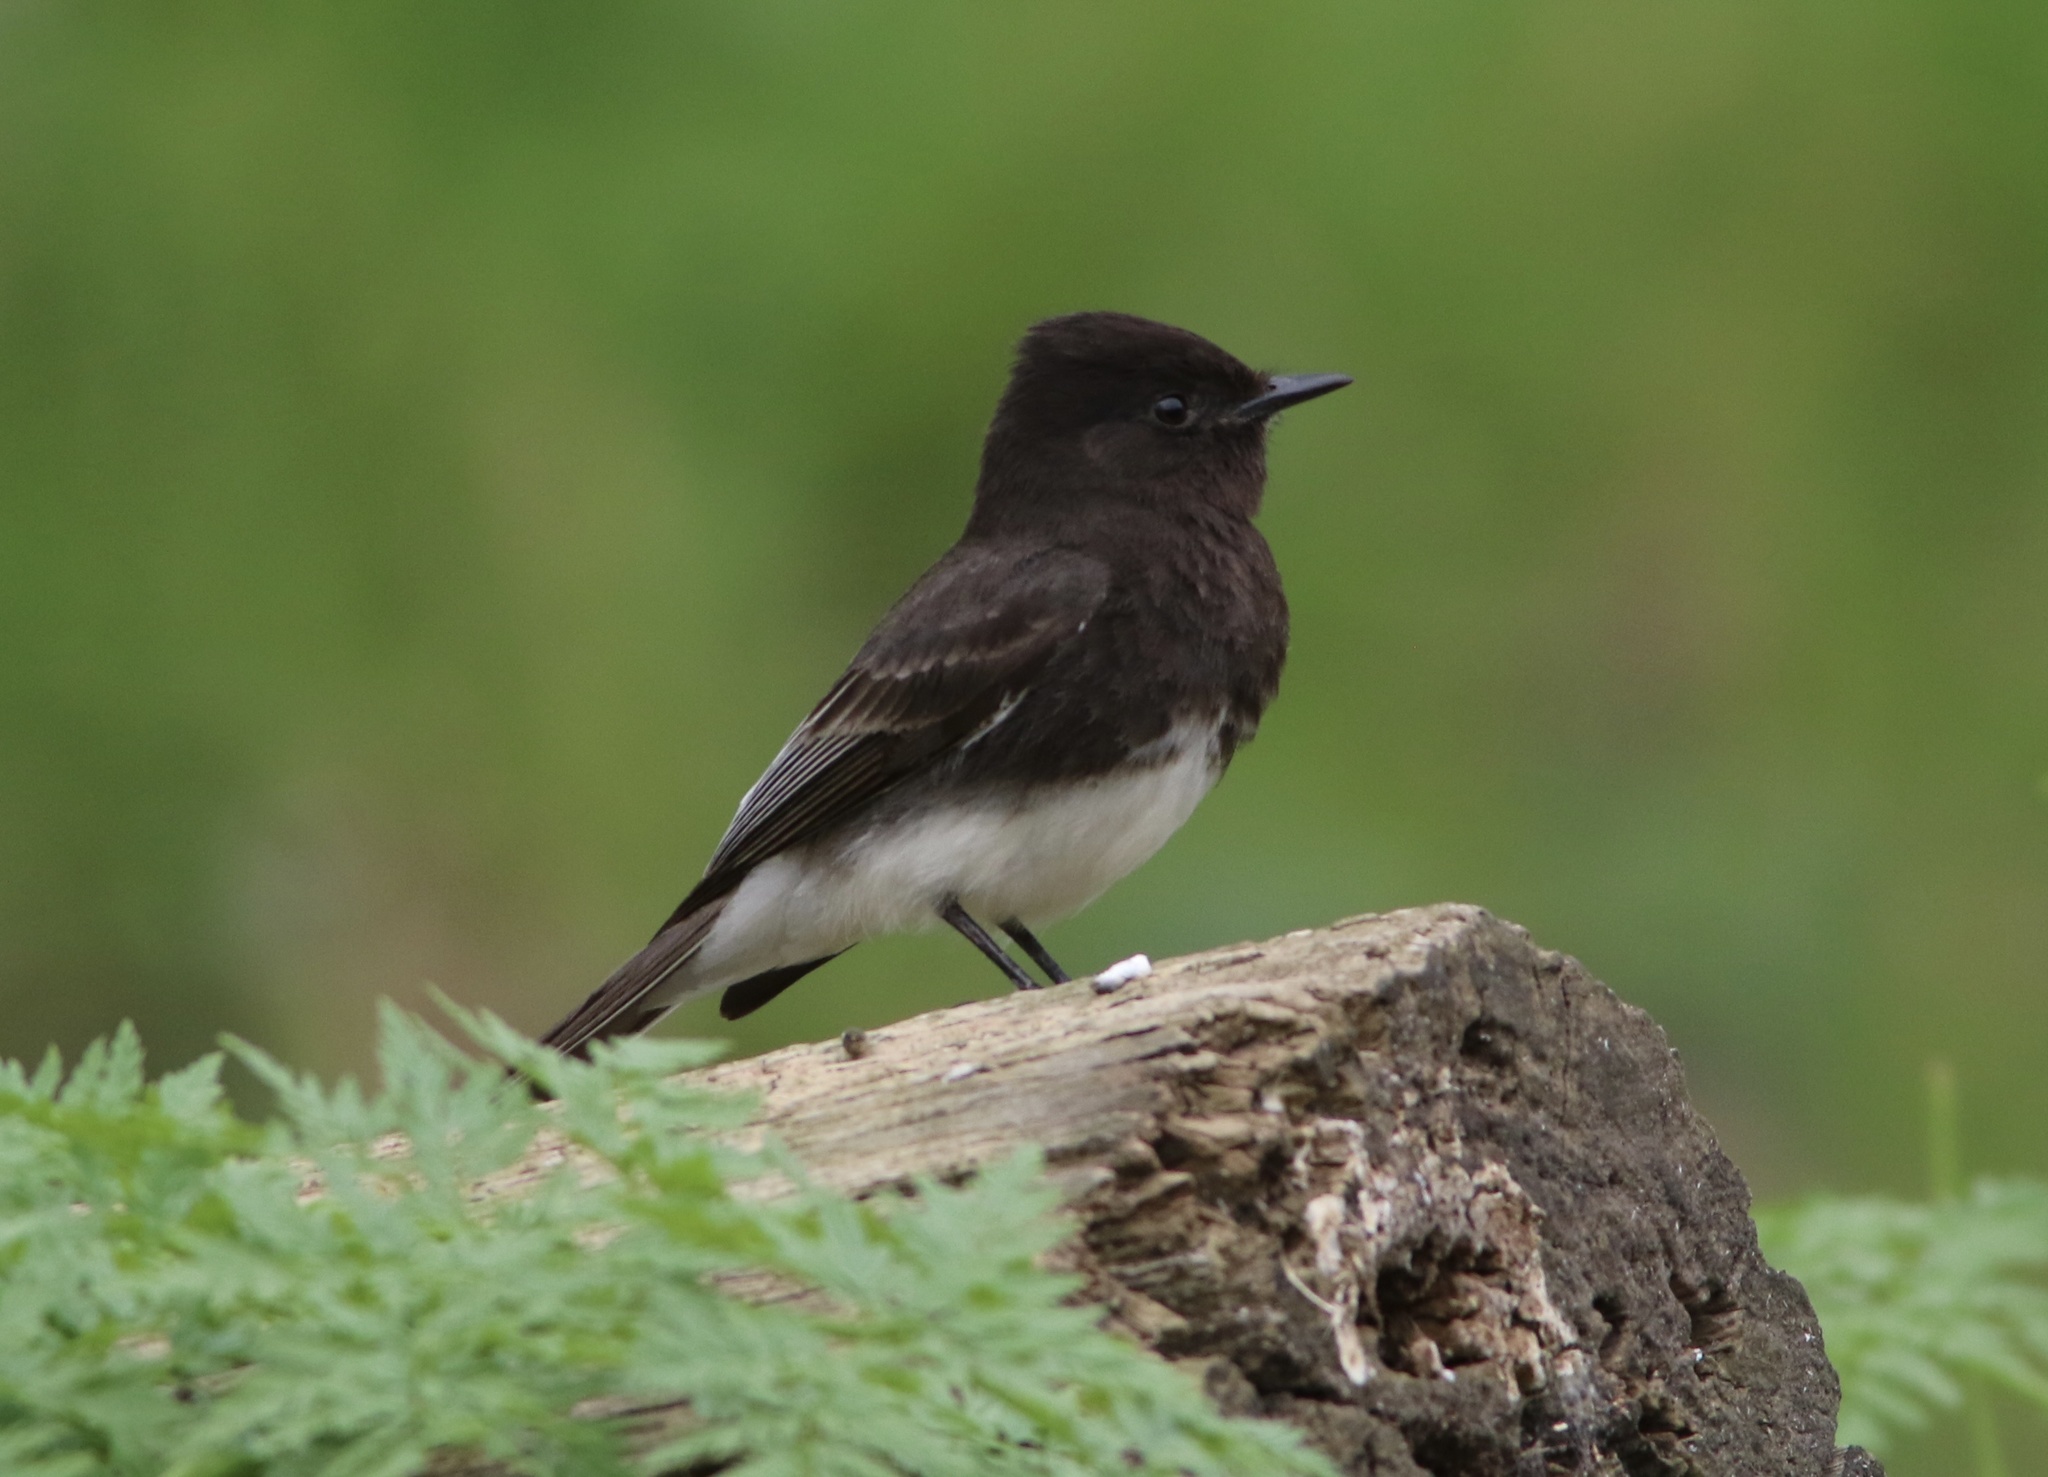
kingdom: Animalia
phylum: Chordata
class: Aves
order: Passeriformes
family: Tyrannidae
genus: Sayornis
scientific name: Sayornis nigricans
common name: Black phoebe
